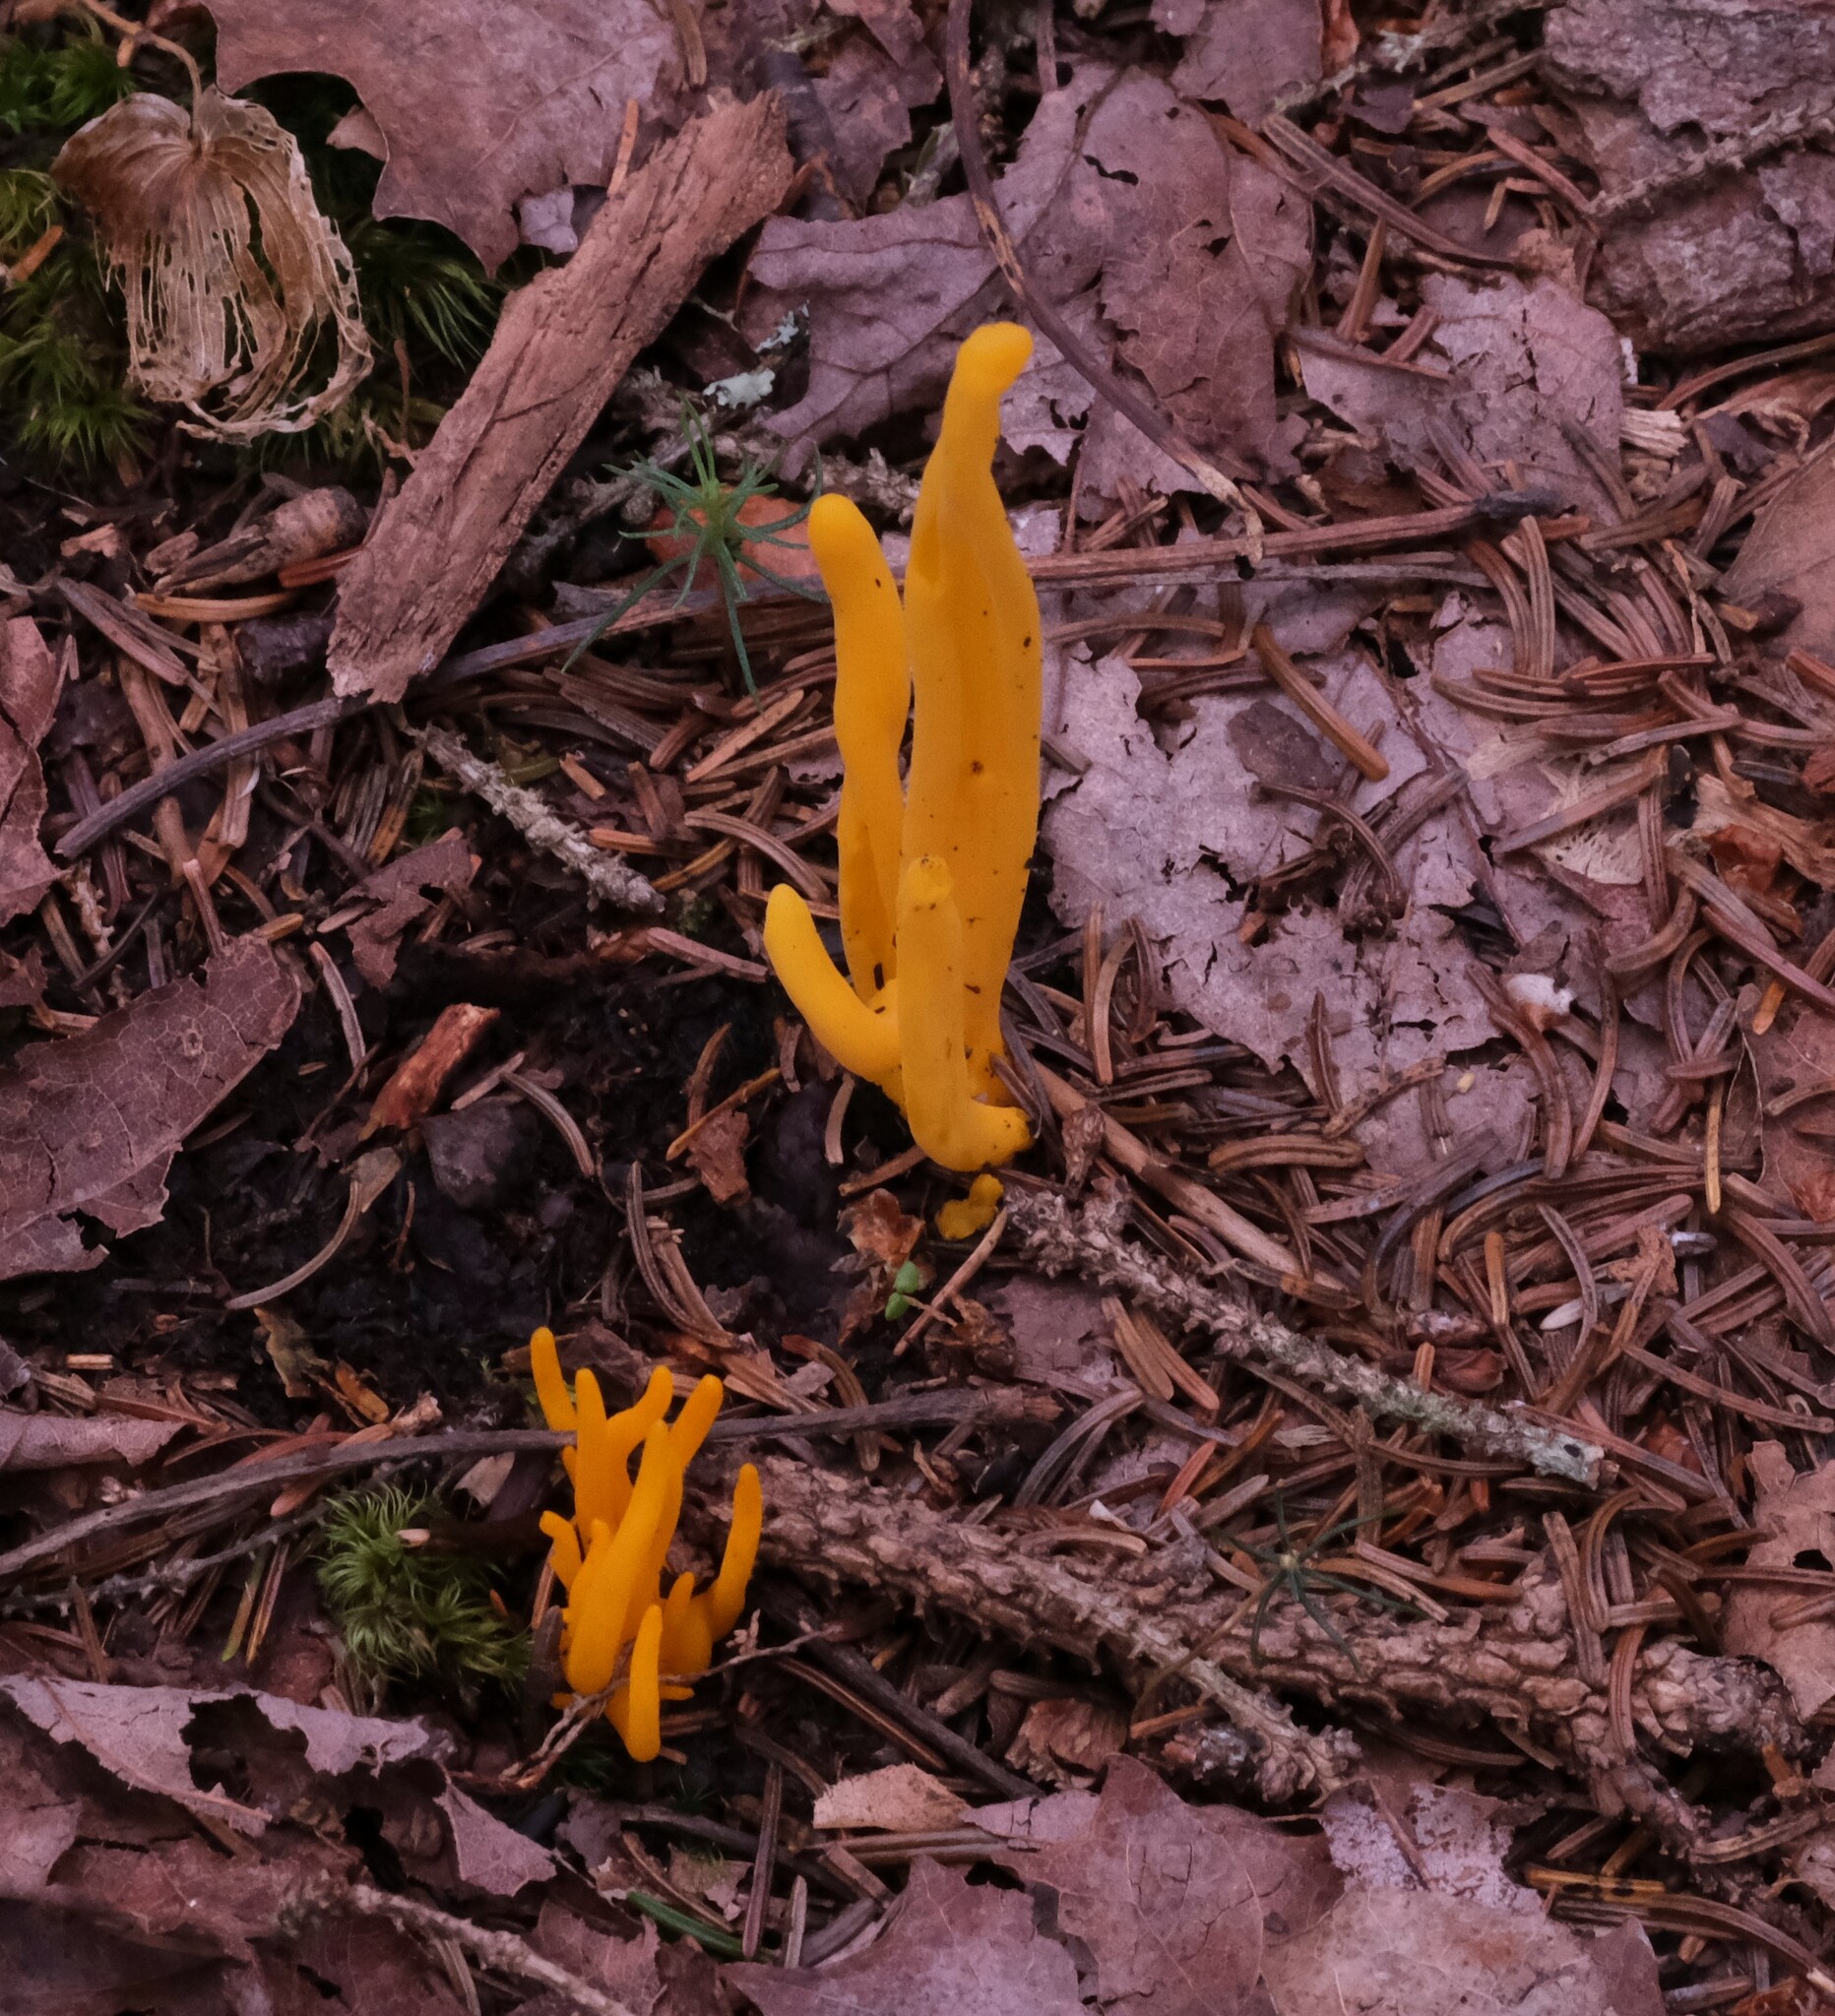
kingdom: Fungi
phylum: Basidiomycota
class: Agaricomycetes
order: Agaricales
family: Clavariaceae
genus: Clavulinopsis
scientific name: Clavulinopsis fusiformis
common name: Golden spindles
